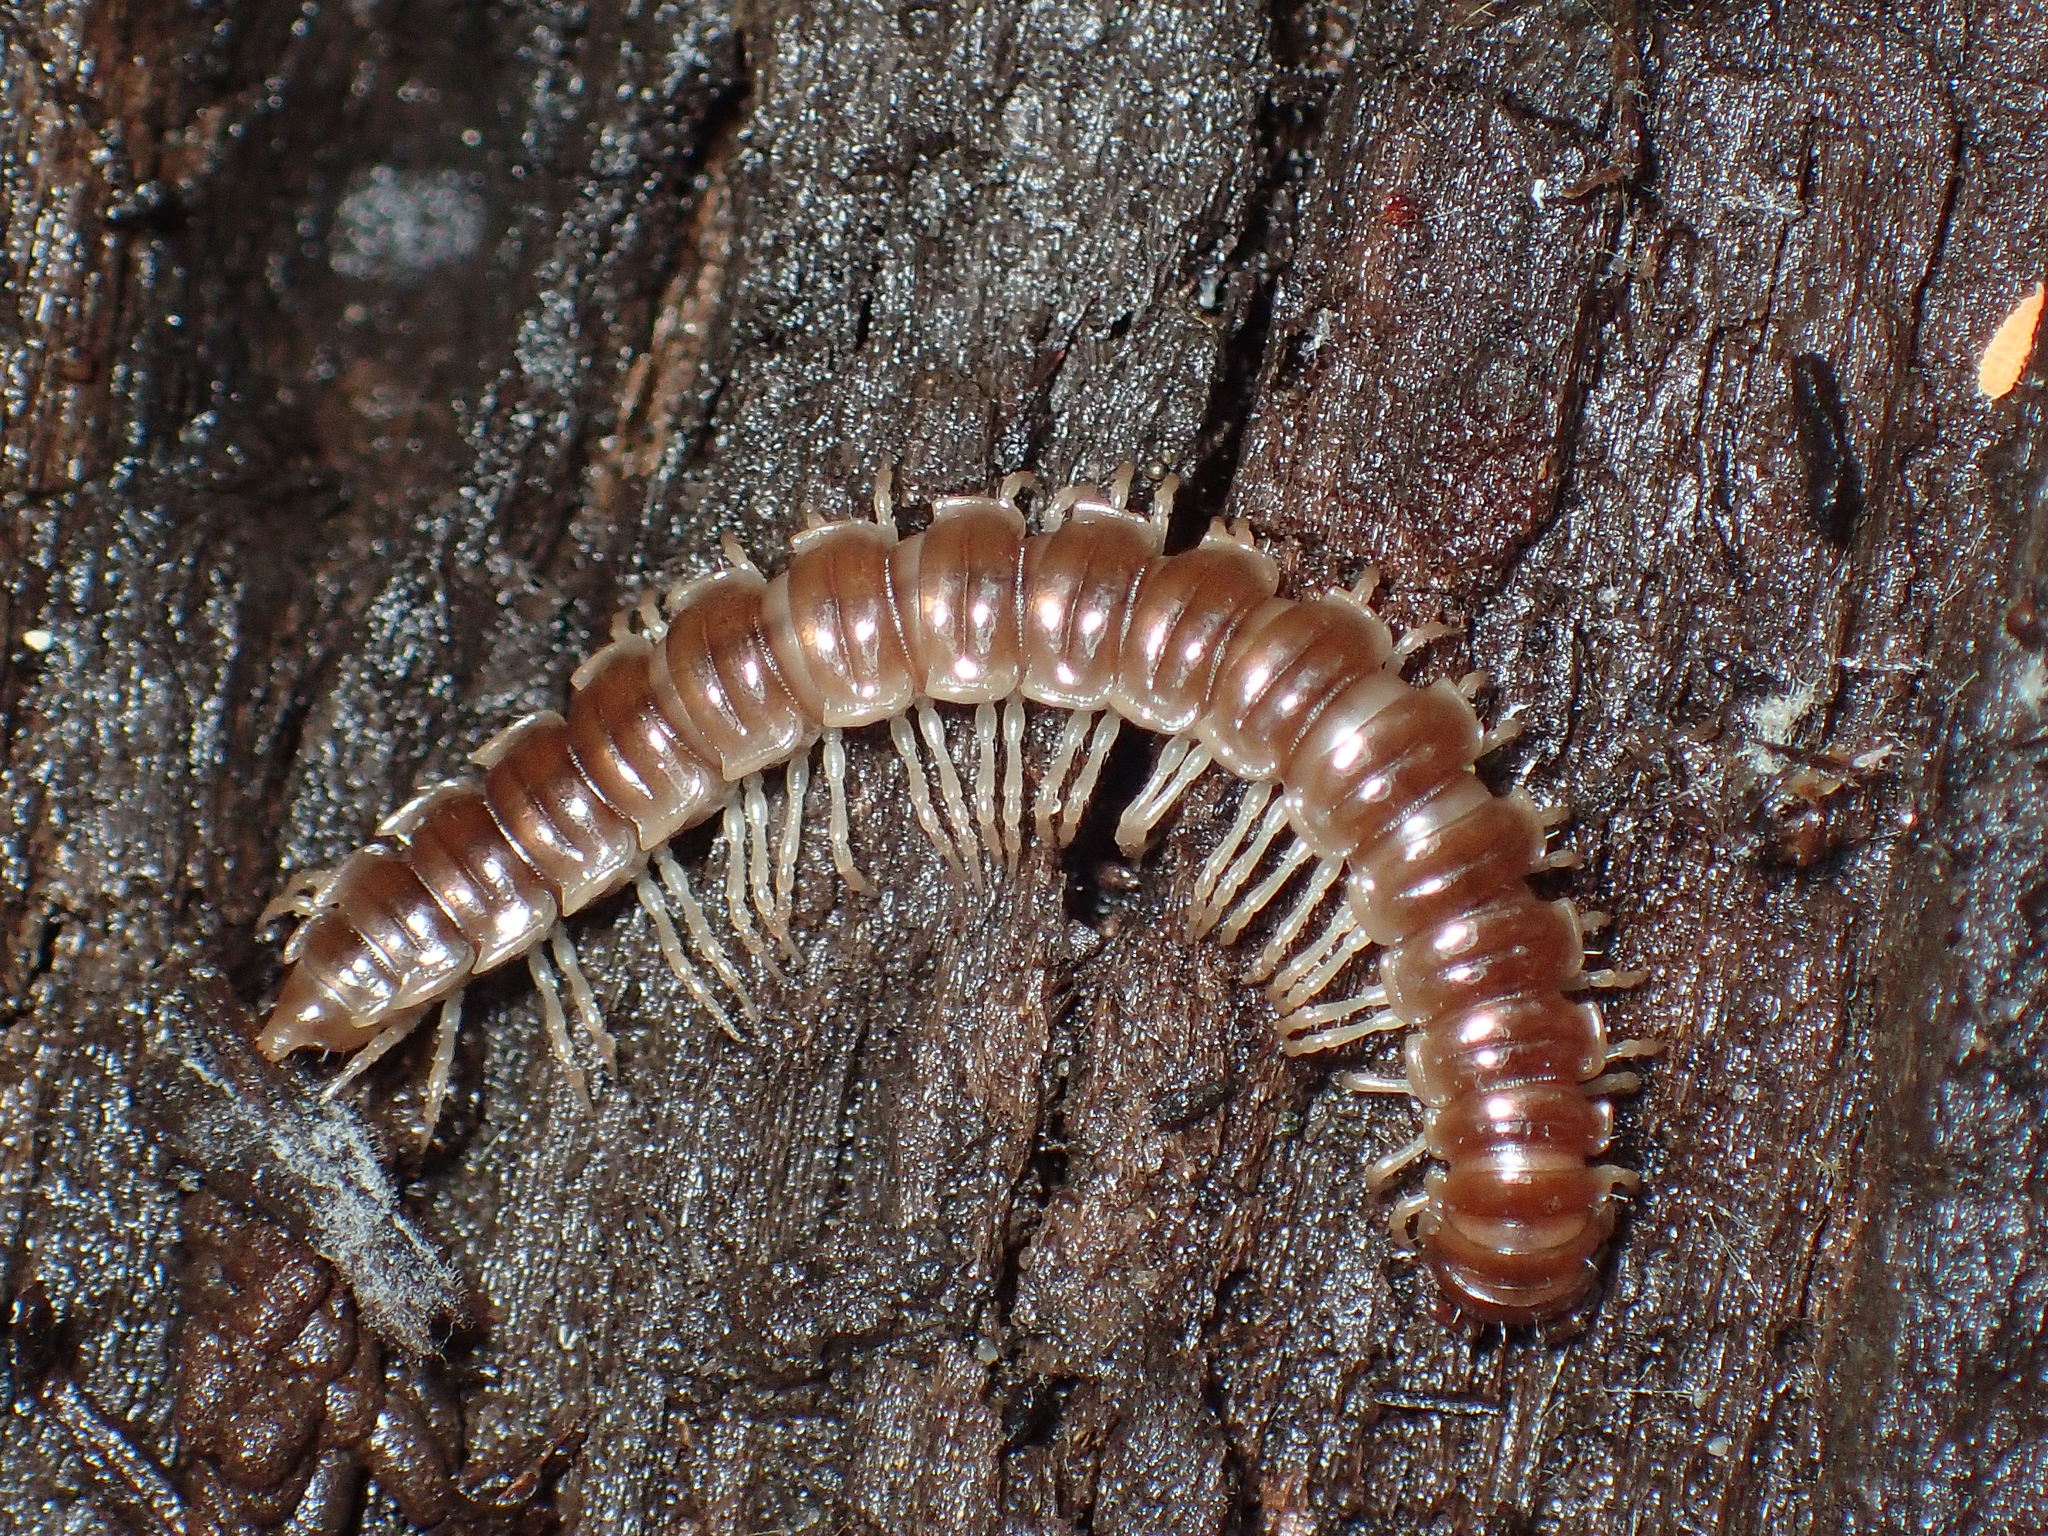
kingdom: Animalia
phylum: Arthropoda
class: Diplopoda
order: Polydesmida
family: Paradoxosomatidae
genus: Oxidus
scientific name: Oxidus gracilis
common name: Greenhouse millipede
